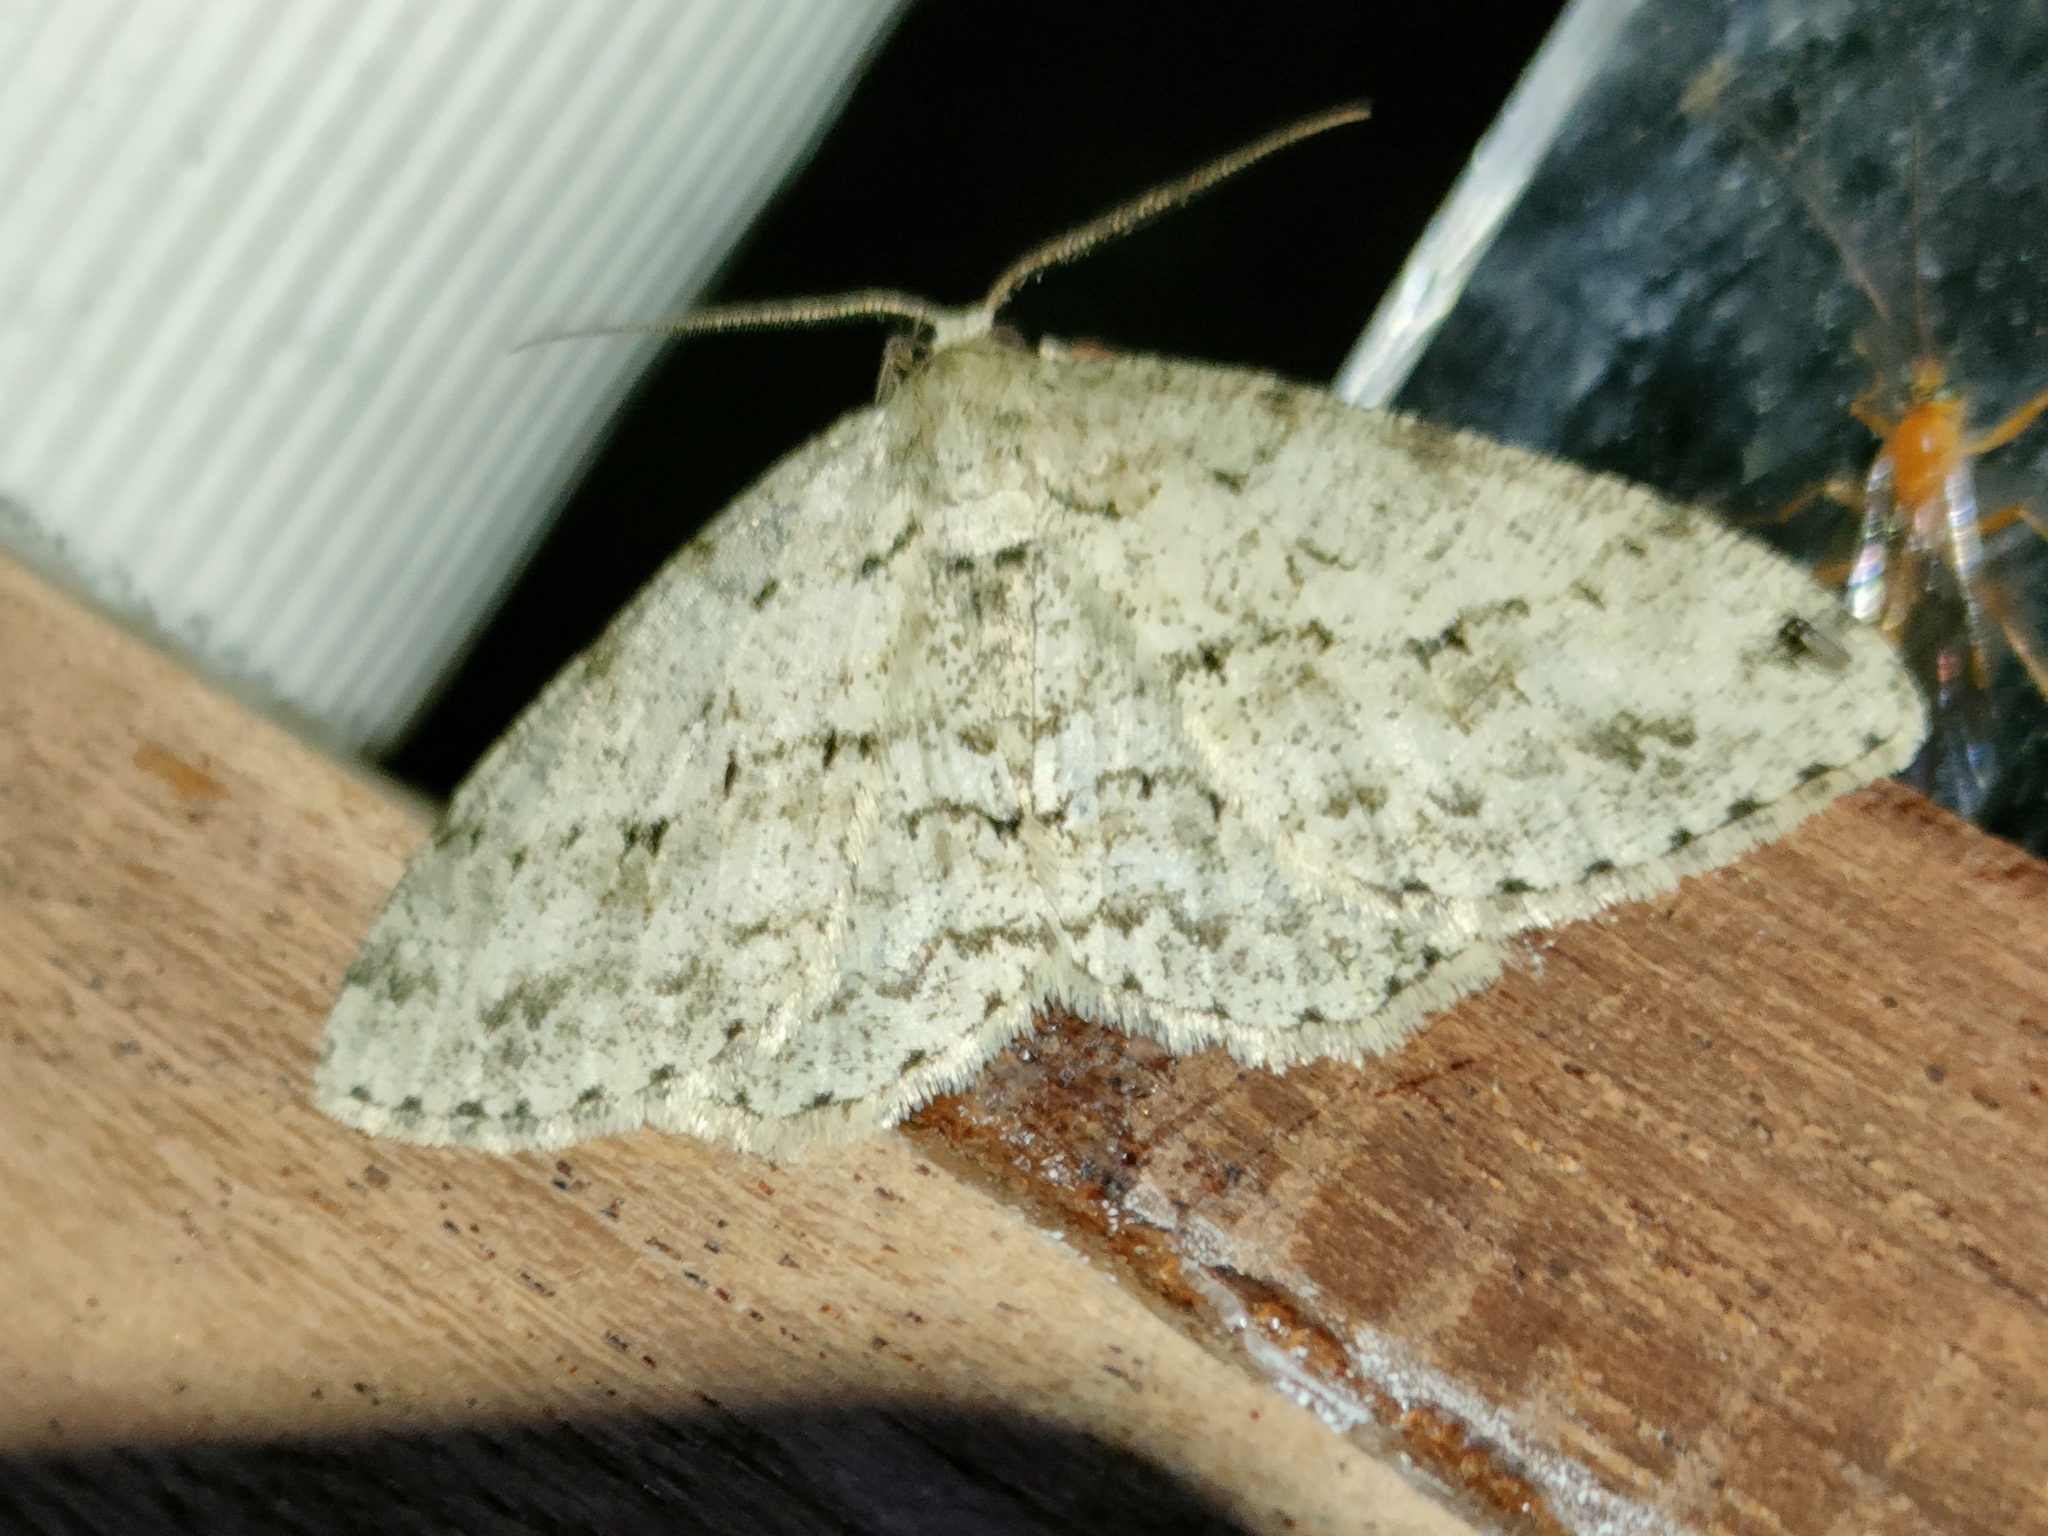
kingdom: Animalia
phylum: Arthropoda
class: Insecta
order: Lepidoptera
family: Geometridae
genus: Ectropis
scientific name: Ectropis crepuscularia
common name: Engrailed
